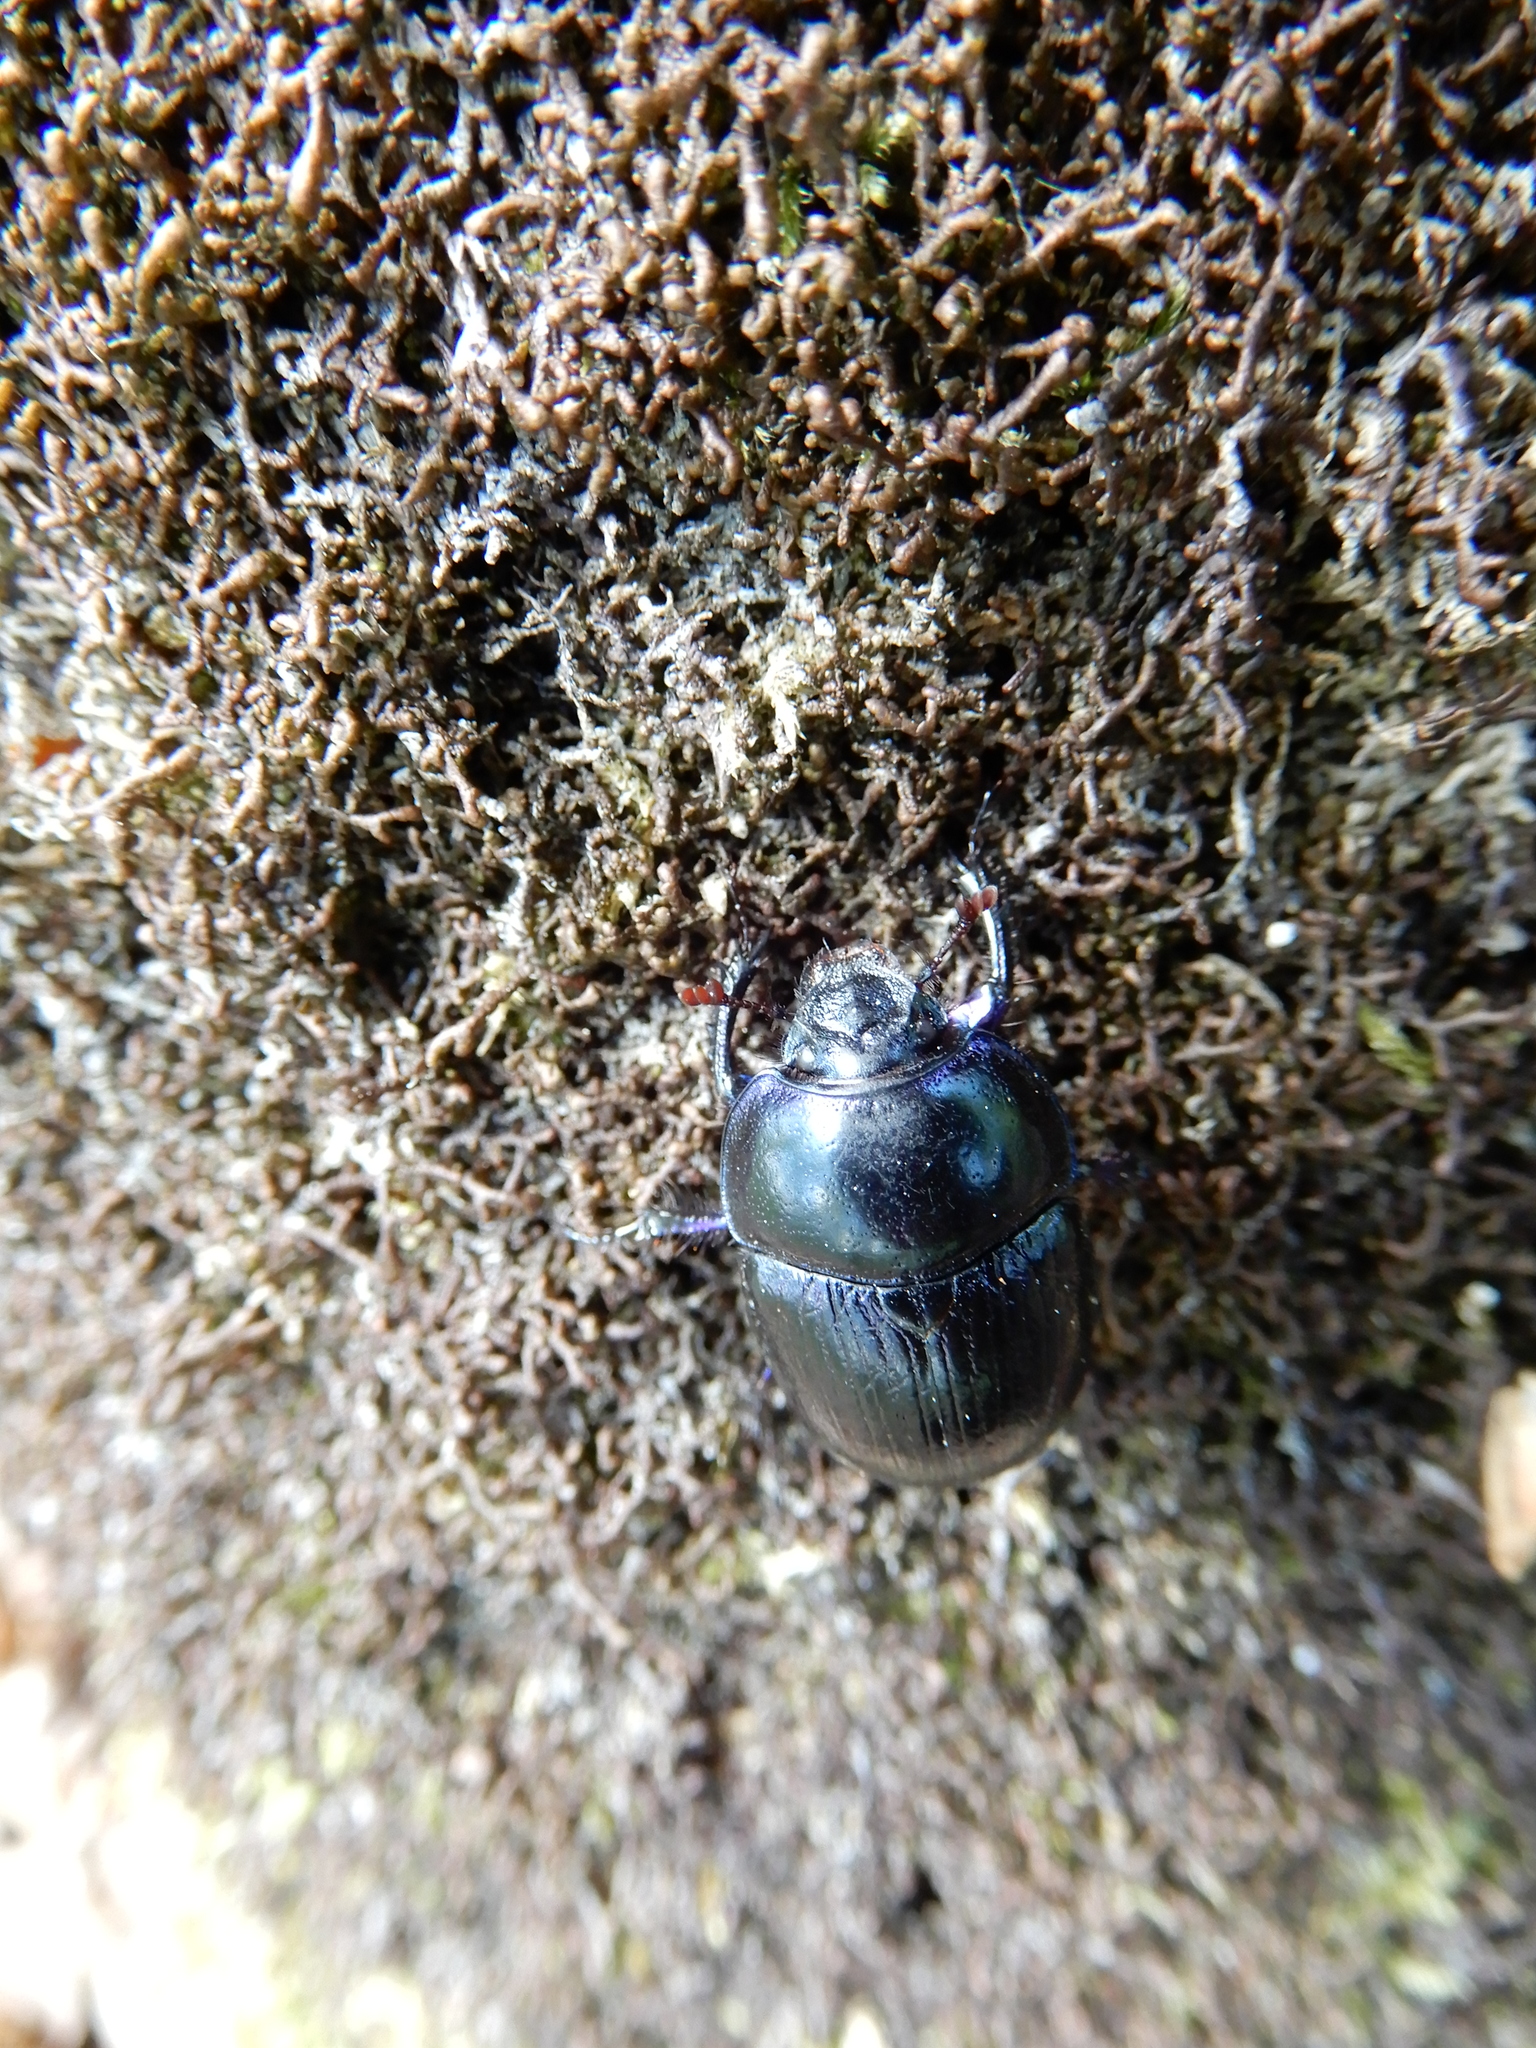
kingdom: Animalia
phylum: Arthropoda
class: Insecta
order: Coleoptera
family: Geotrupidae
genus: Anoplotrupes
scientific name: Anoplotrupes stercorosus
